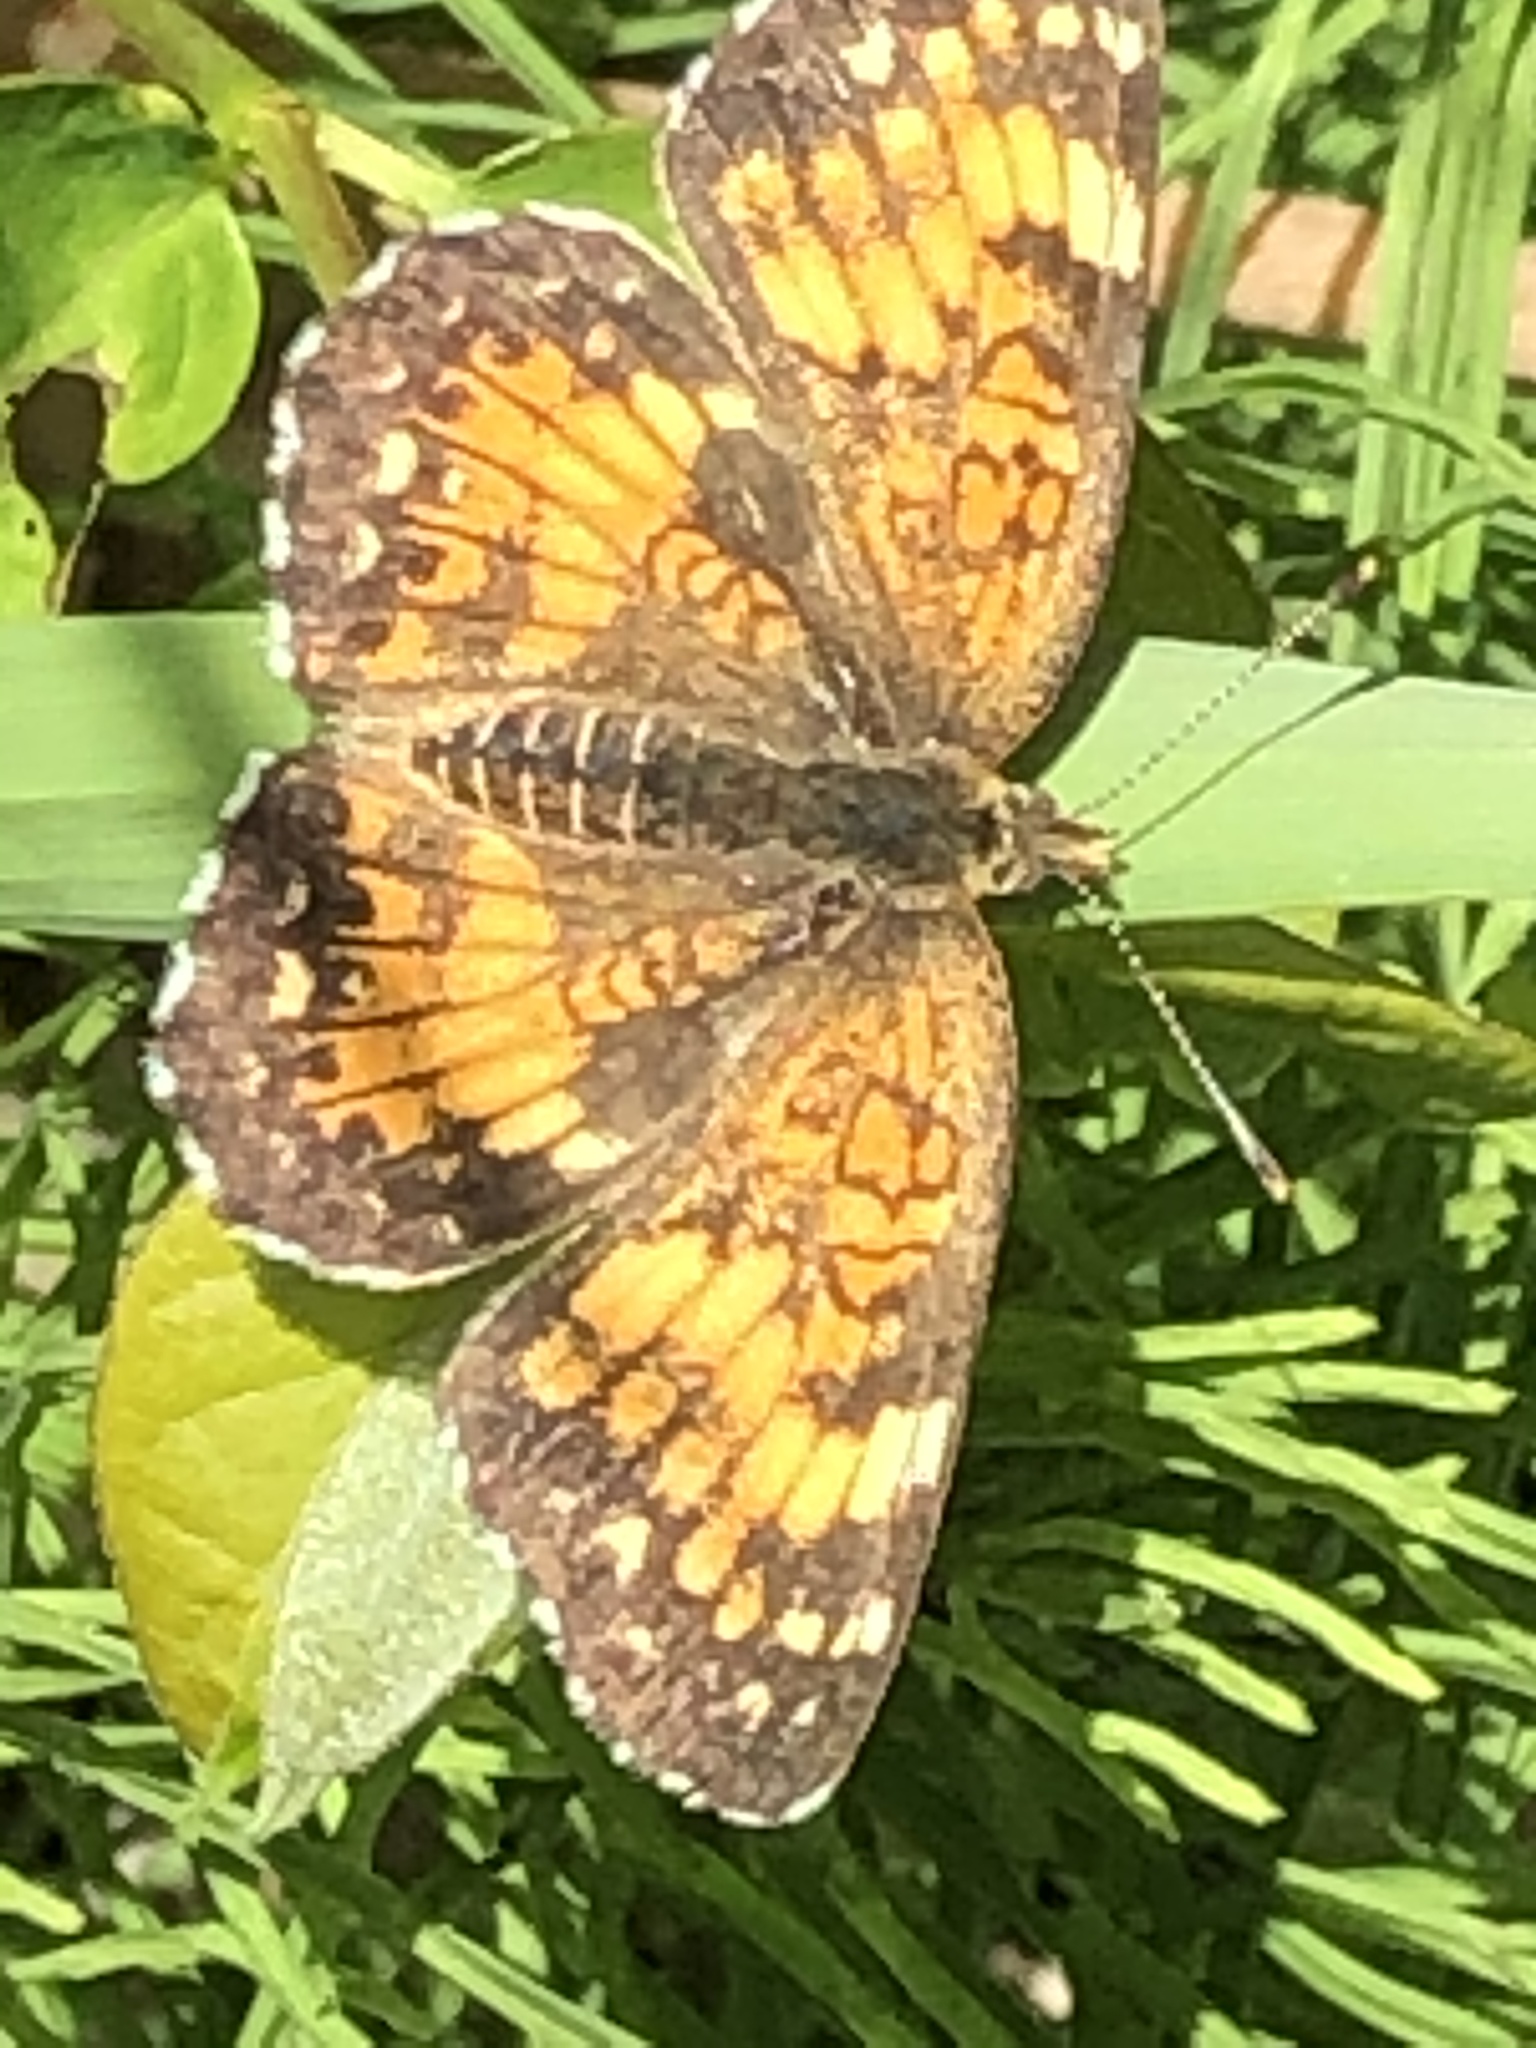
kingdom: Animalia
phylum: Arthropoda
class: Insecta
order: Lepidoptera
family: Nymphalidae
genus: Chlosyne
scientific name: Chlosyne harrisii
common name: Harris's checkerspot
